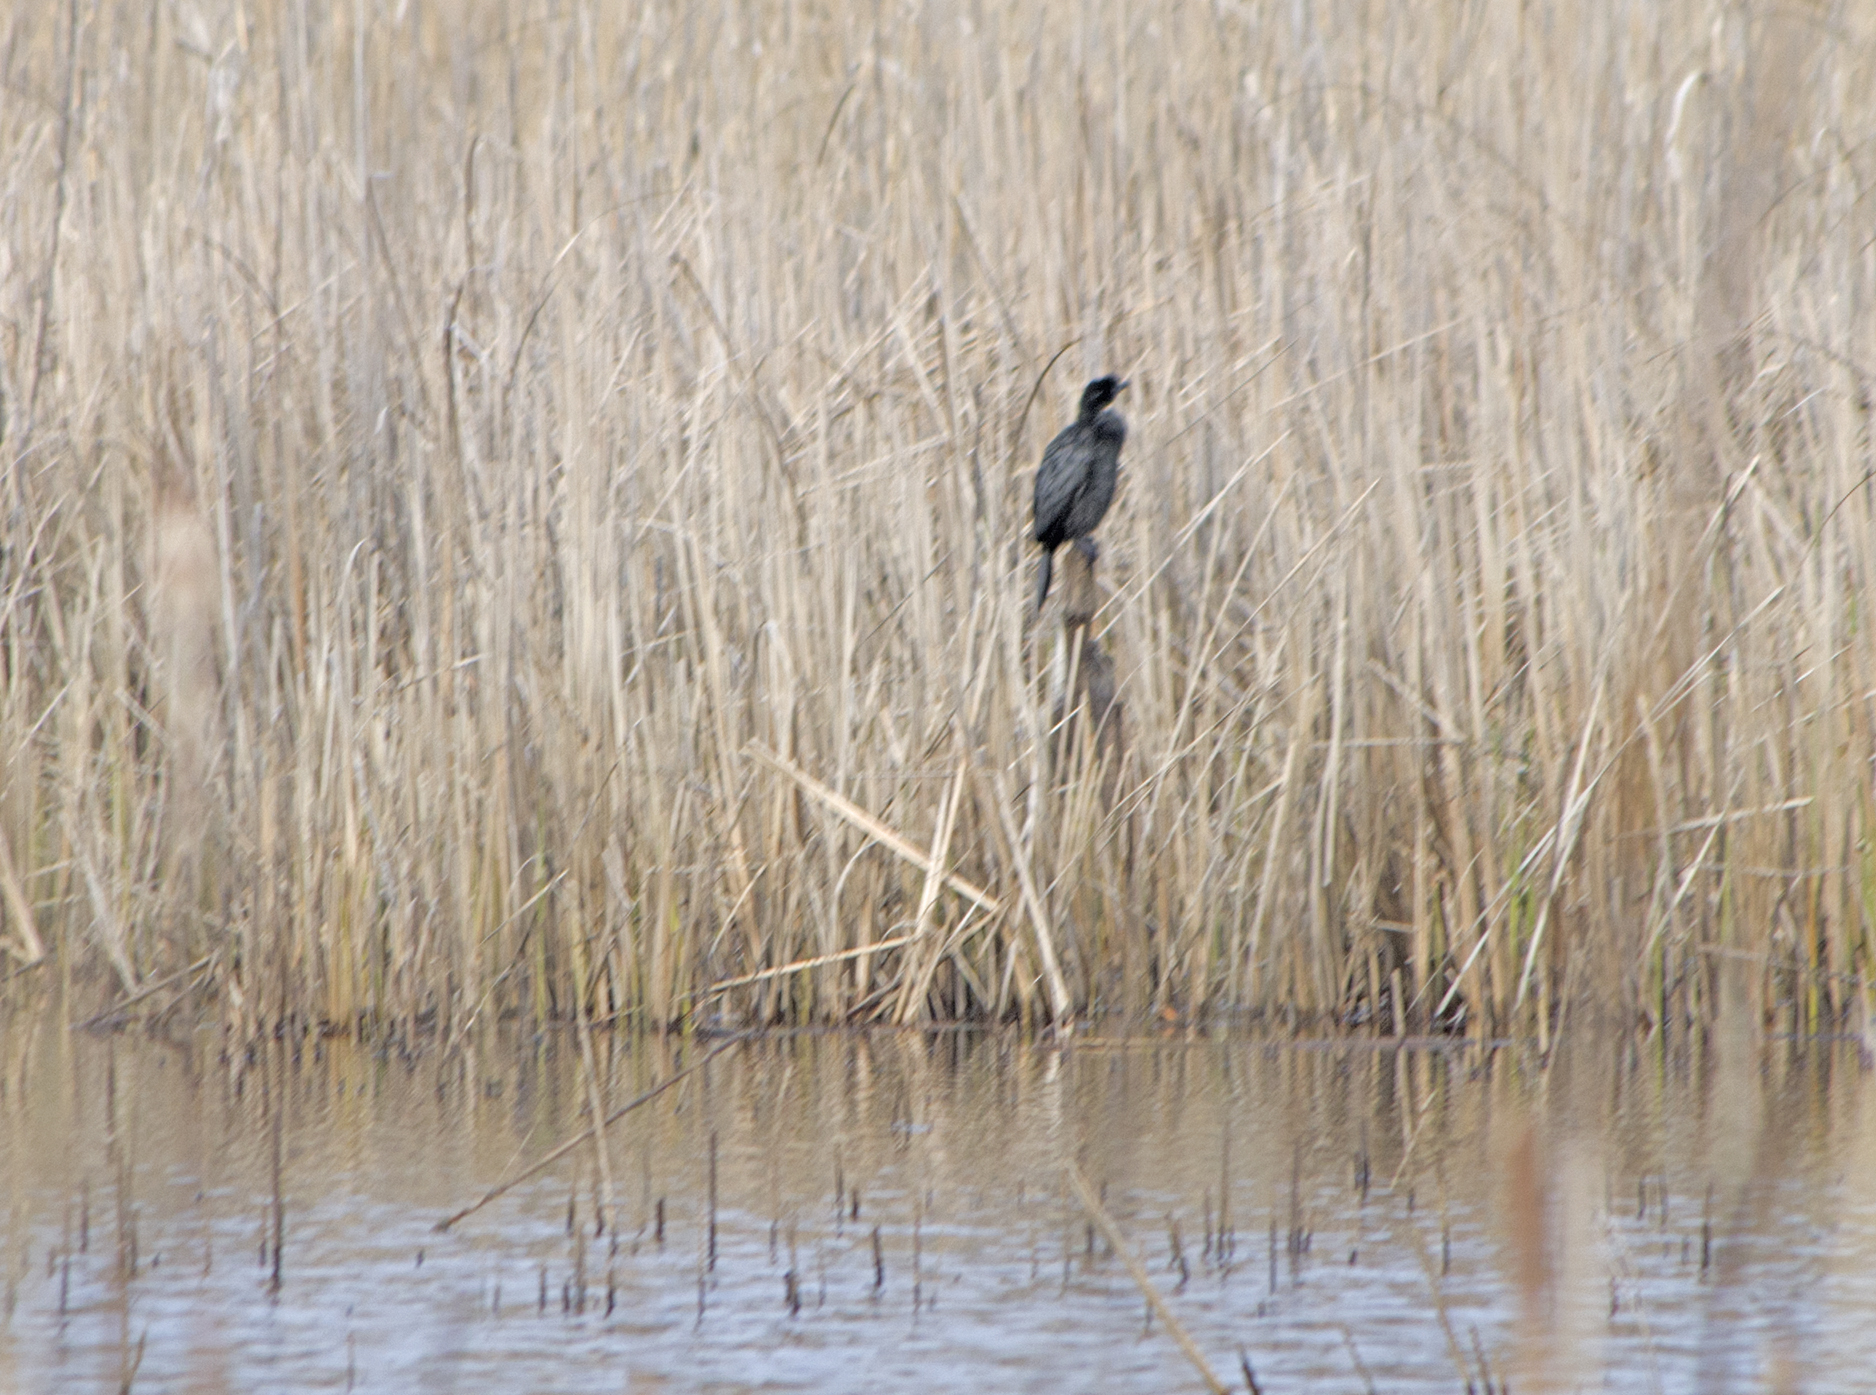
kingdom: Animalia
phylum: Chordata
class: Aves
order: Suliformes
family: Phalacrocoracidae
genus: Microcarbo
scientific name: Microcarbo pygmaeus
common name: Pygmy cormorant
